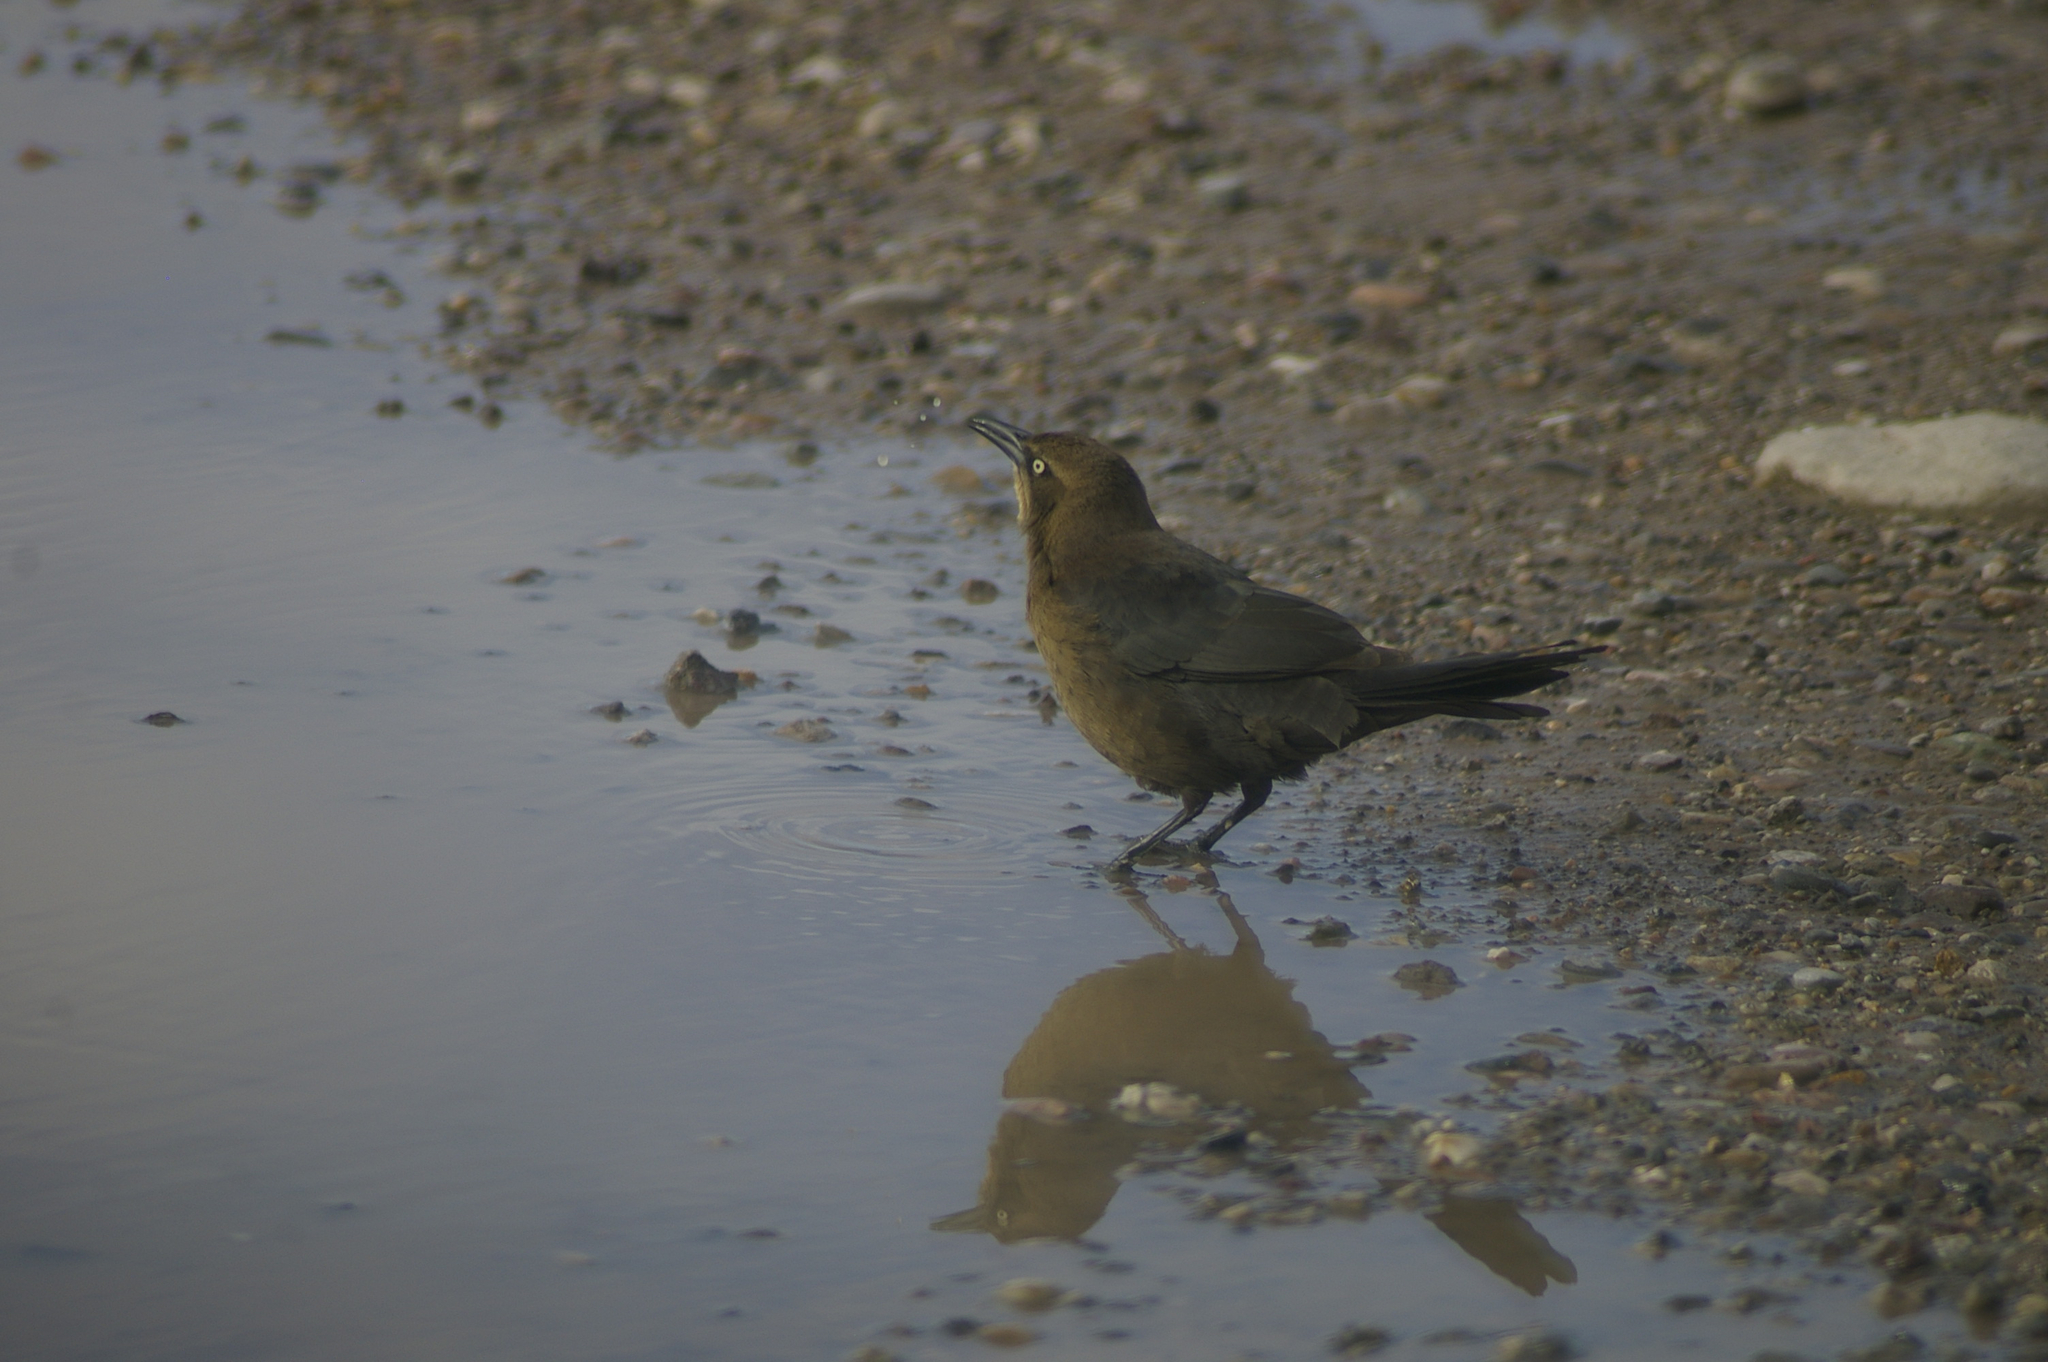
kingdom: Animalia
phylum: Chordata
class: Aves
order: Passeriformes
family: Icteridae
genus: Quiscalus
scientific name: Quiscalus mexicanus
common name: Great-tailed grackle
